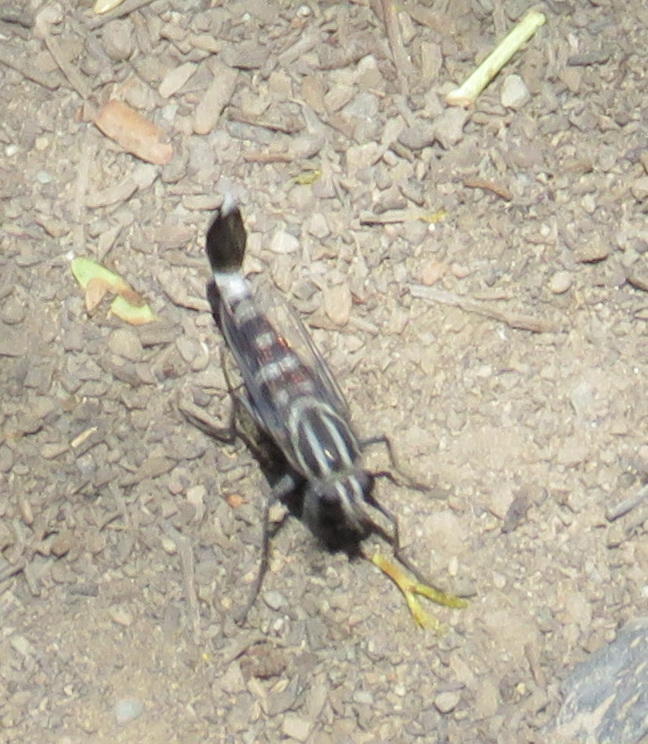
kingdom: Animalia
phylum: Arthropoda
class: Insecta
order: Diptera
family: Apioceridae
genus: Apiocera
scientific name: Apiocera braunsi
